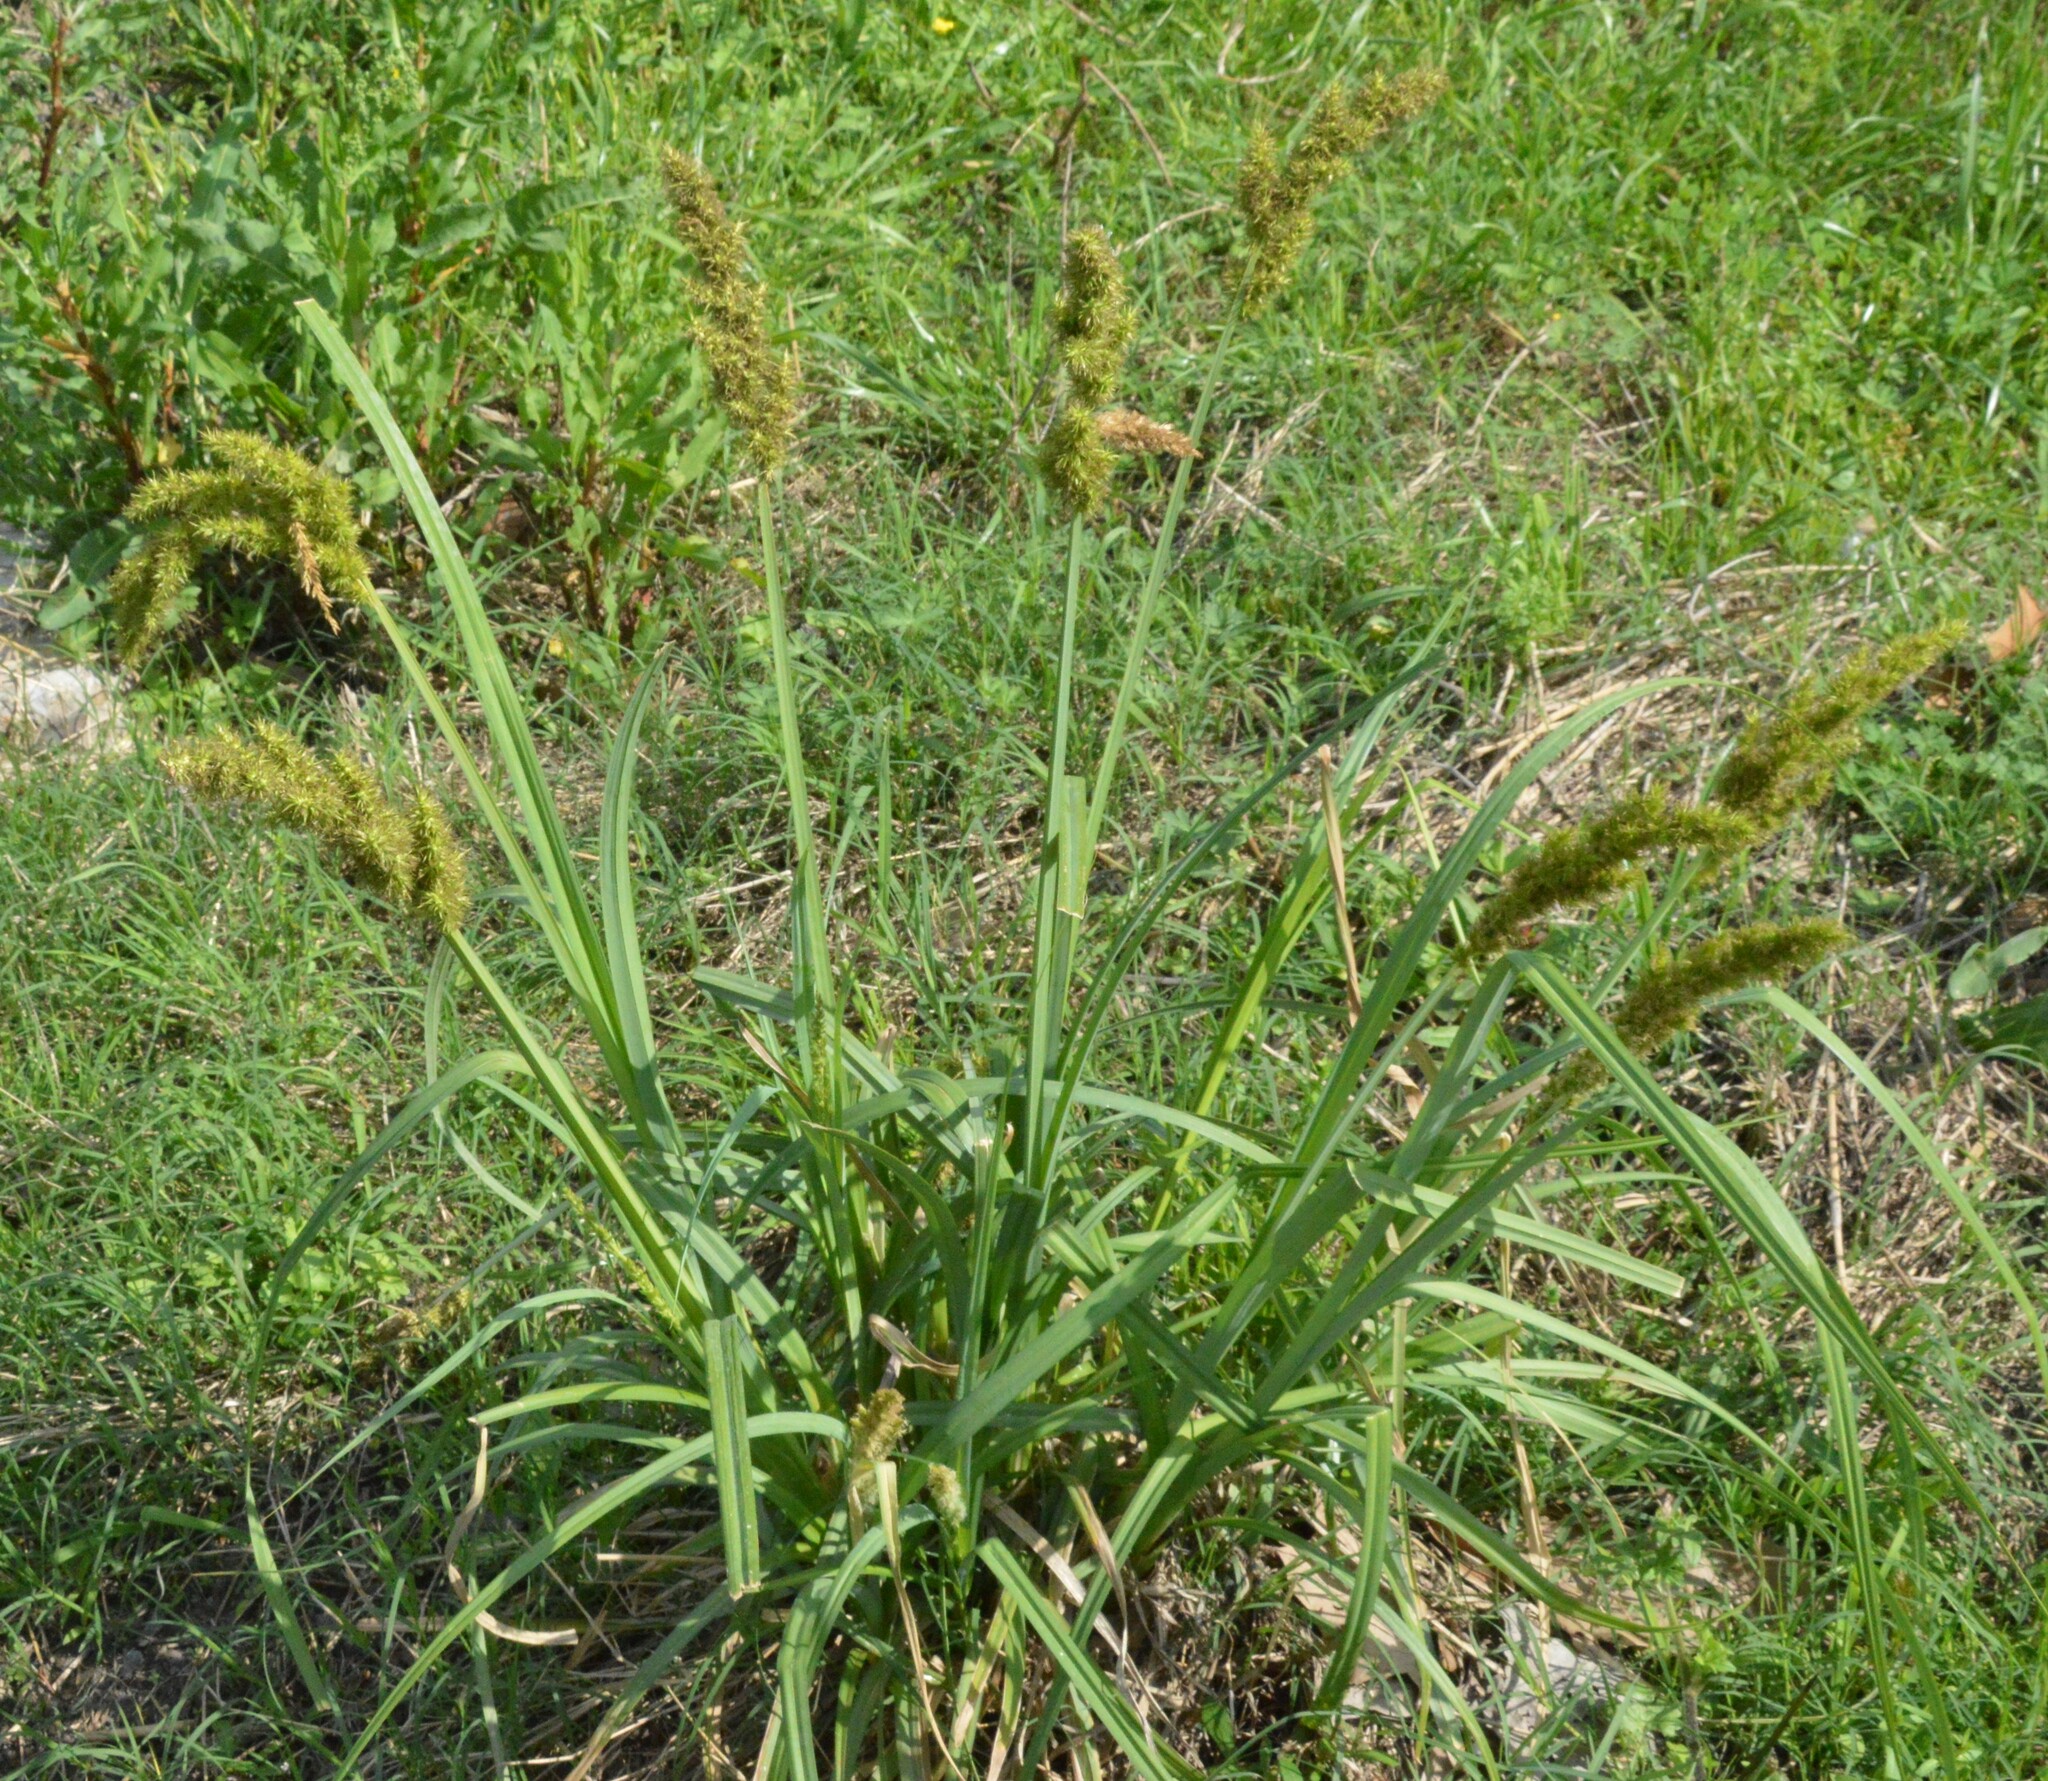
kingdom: Plantae
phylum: Tracheophyta
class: Liliopsida
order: Poales
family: Cyperaceae
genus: Carex
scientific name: Carex crus-corvi
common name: Crow-spur sedge
